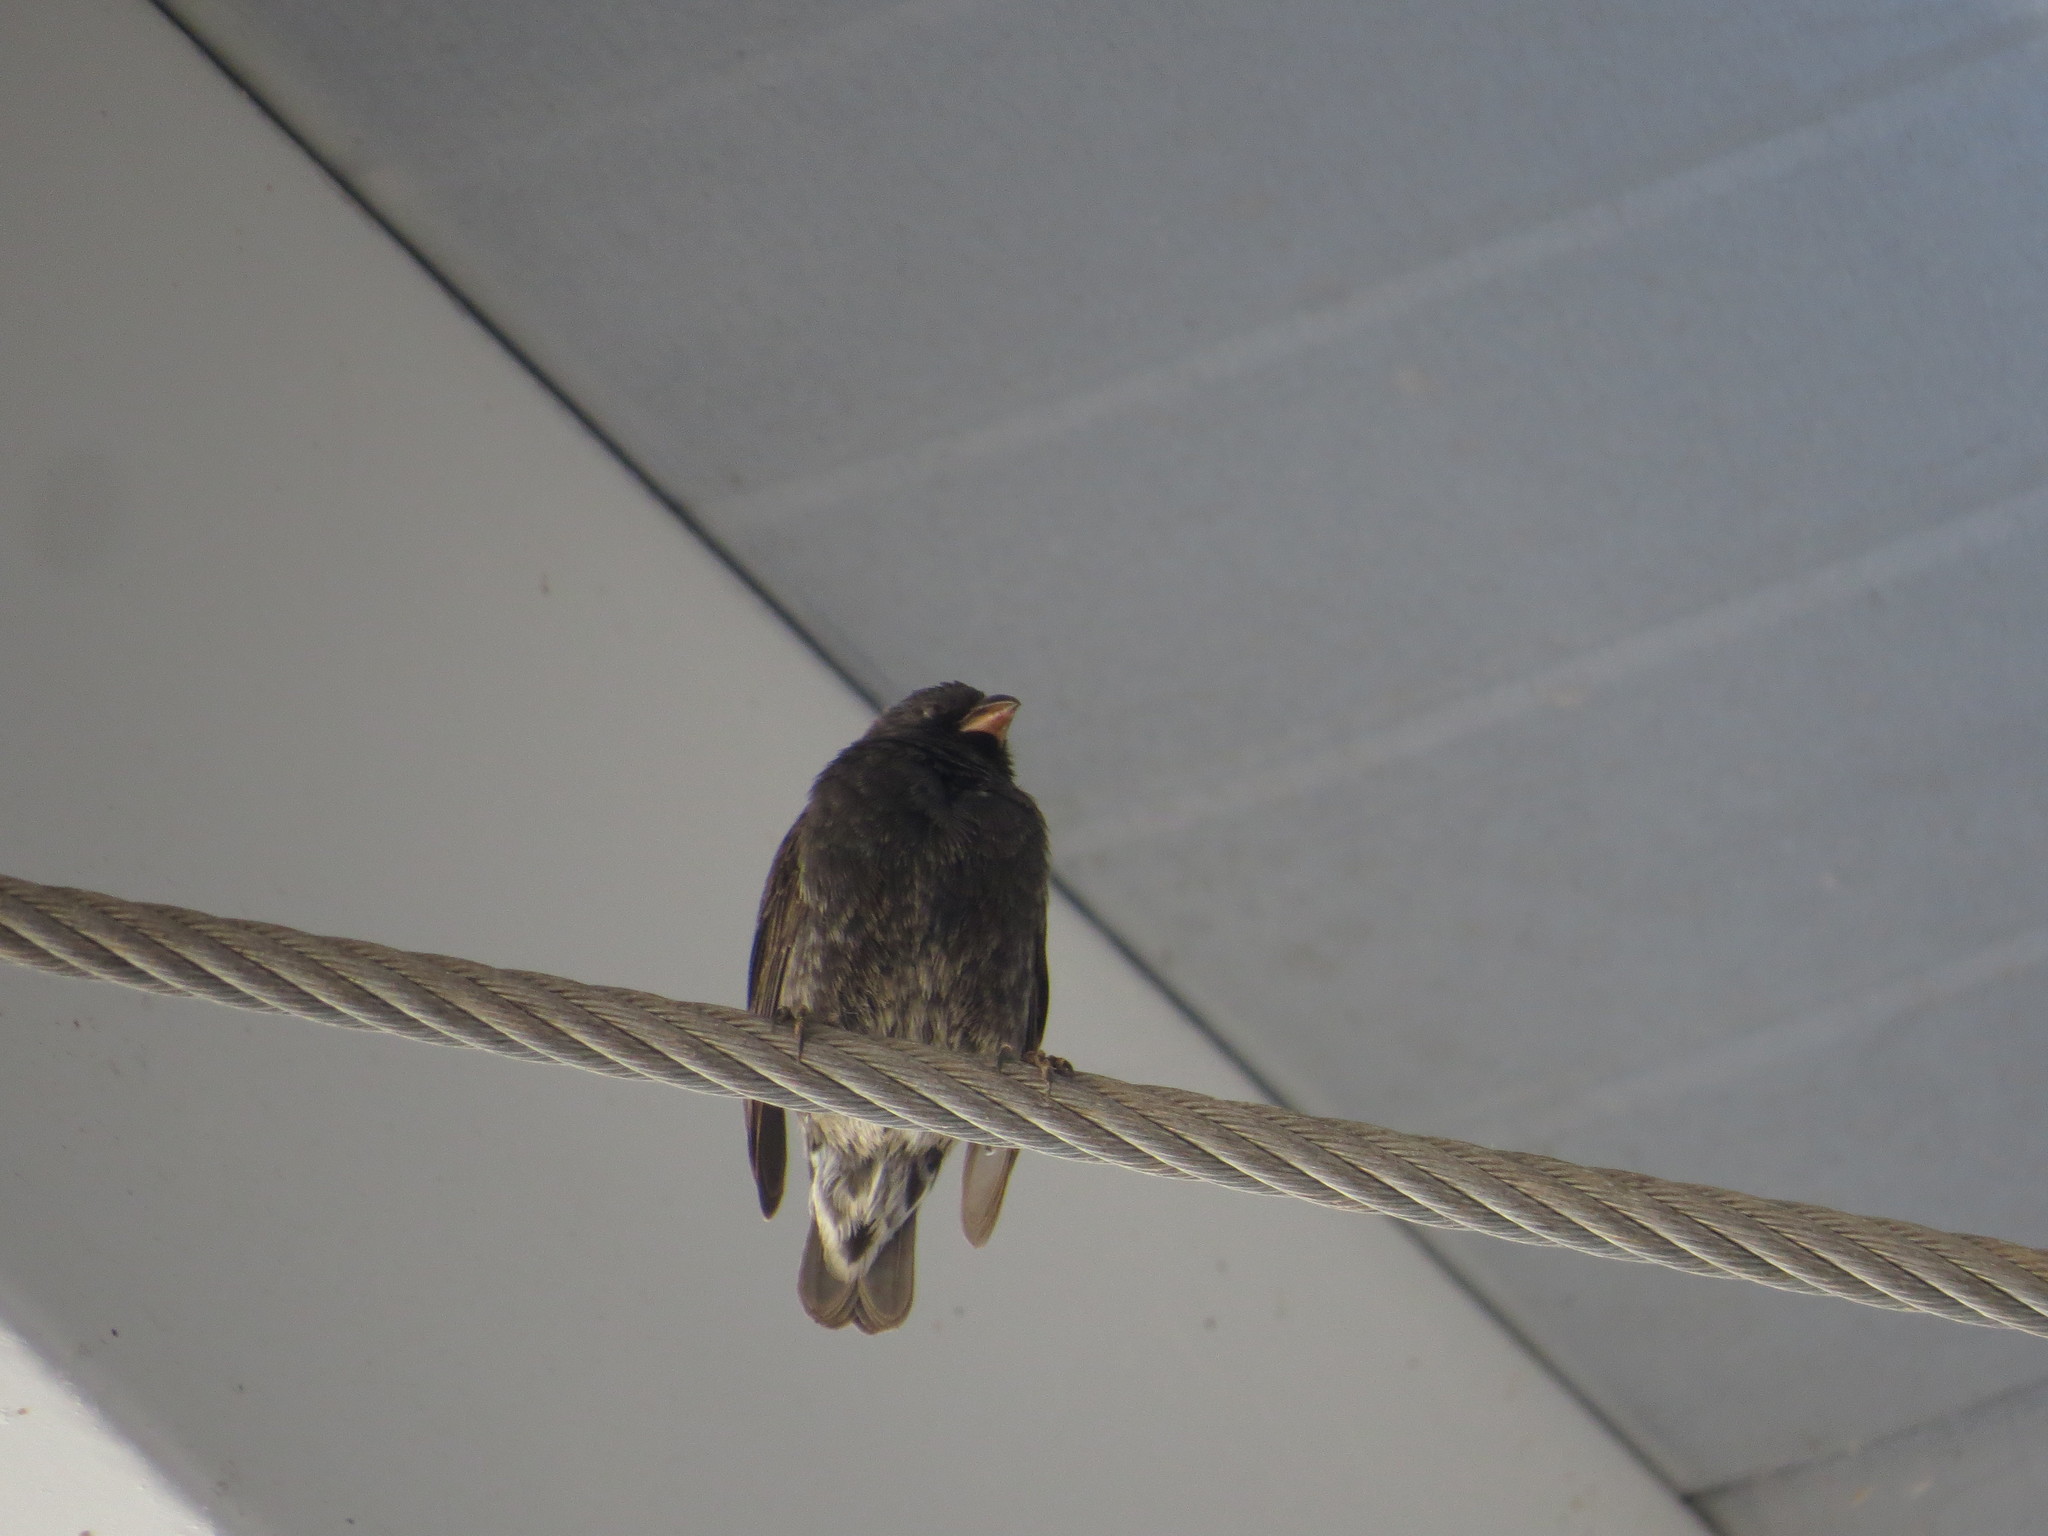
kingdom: Animalia
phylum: Chordata
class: Aves
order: Passeriformes
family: Thraupidae
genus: Geospiza
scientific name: Geospiza fuliginosa
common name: Small ground finch
